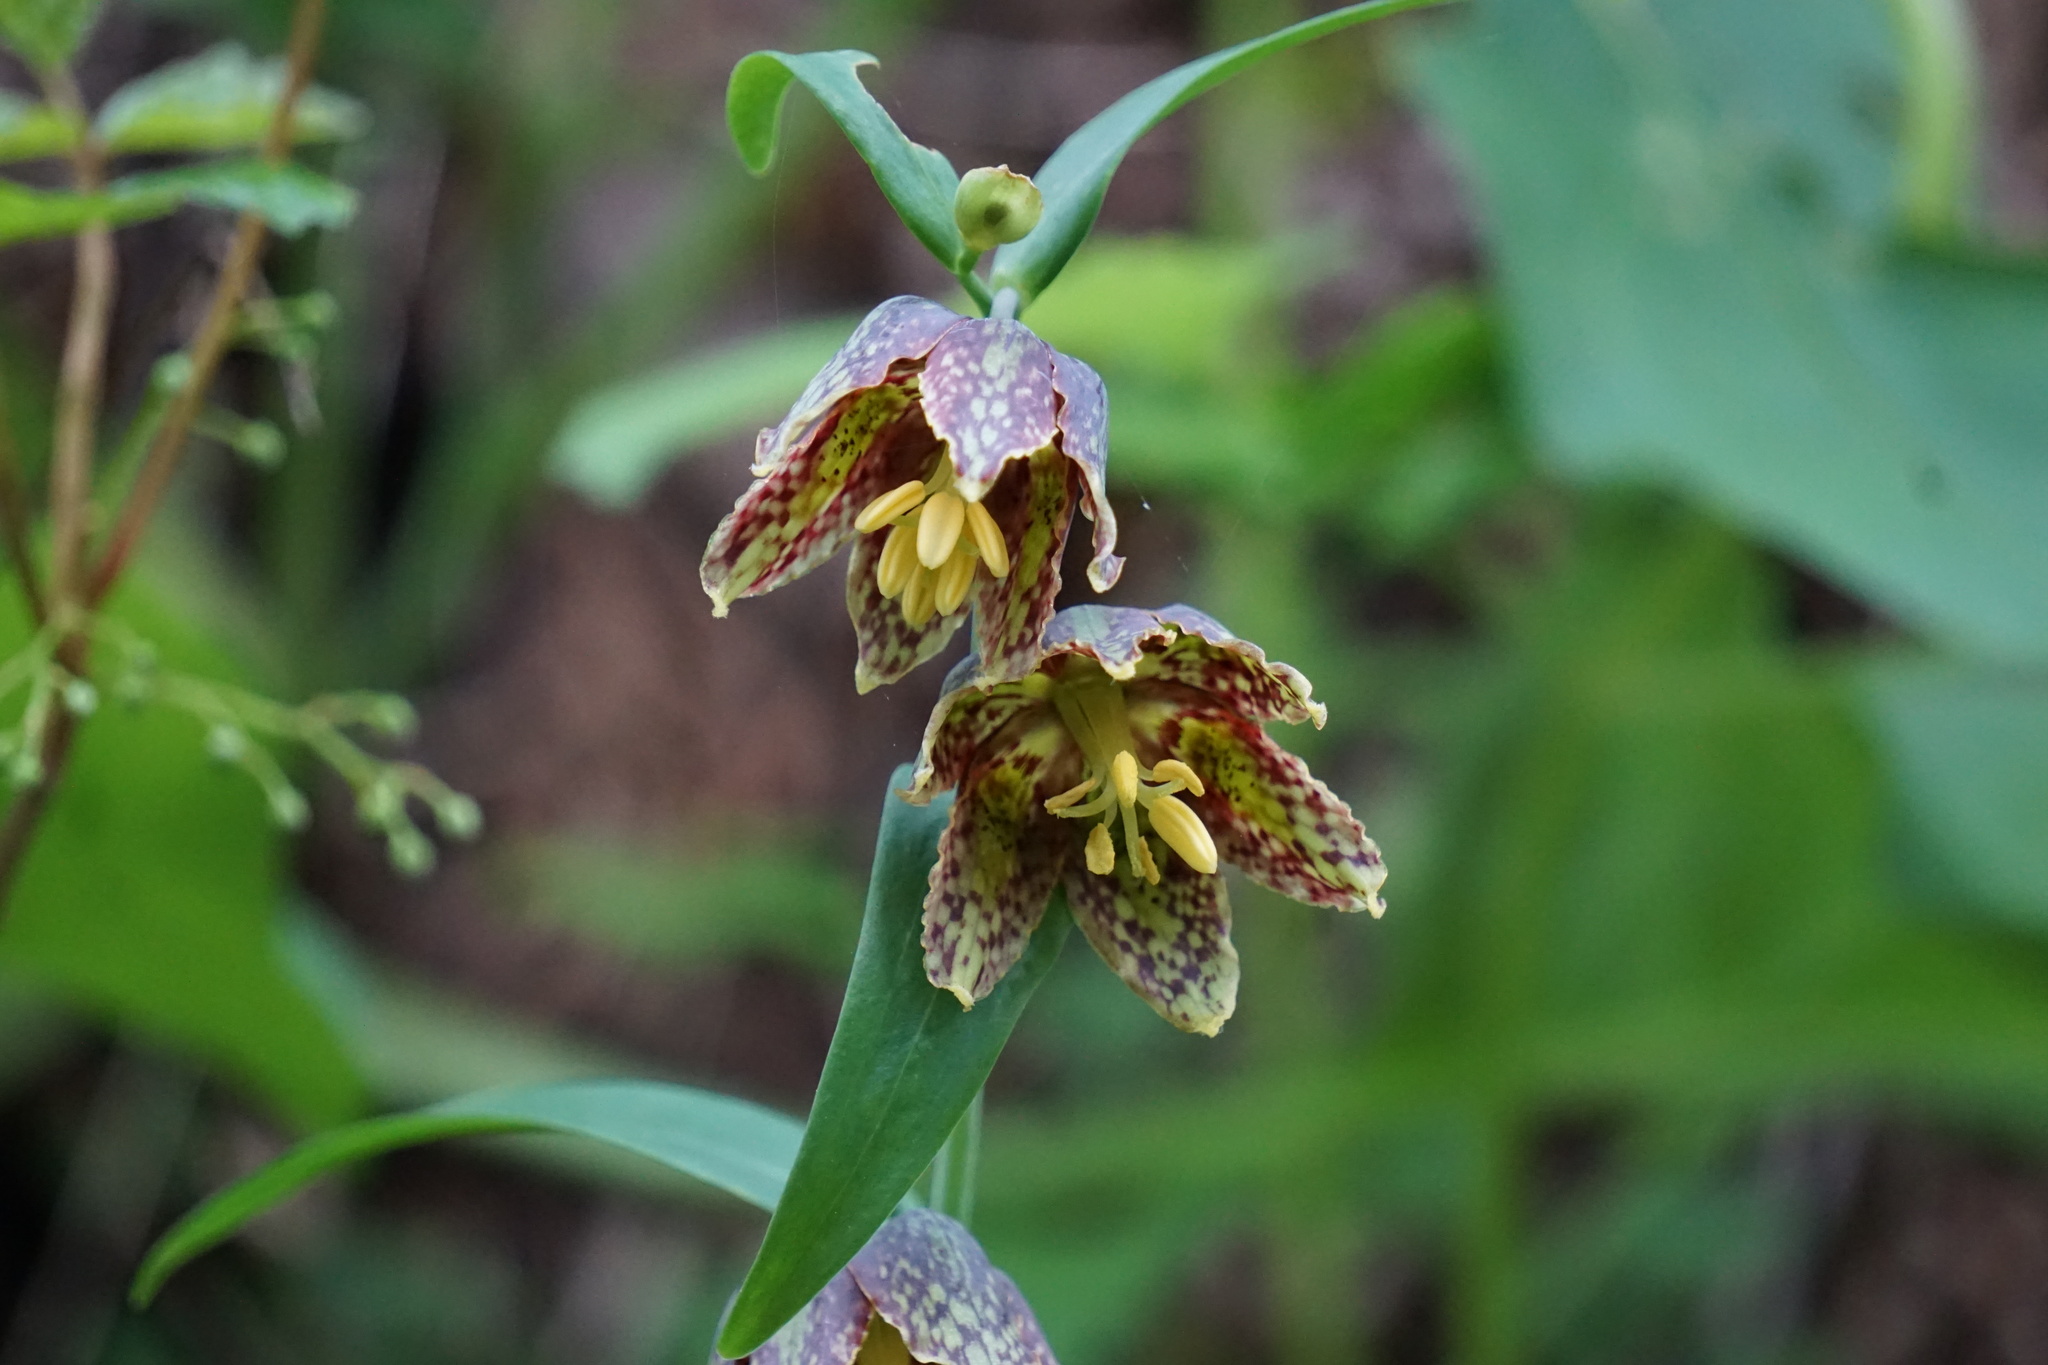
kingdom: Plantae
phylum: Tracheophyta
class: Liliopsida
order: Liliales
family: Liliaceae
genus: Fritillaria
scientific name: Fritillaria affinis
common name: Ojai fritillary
